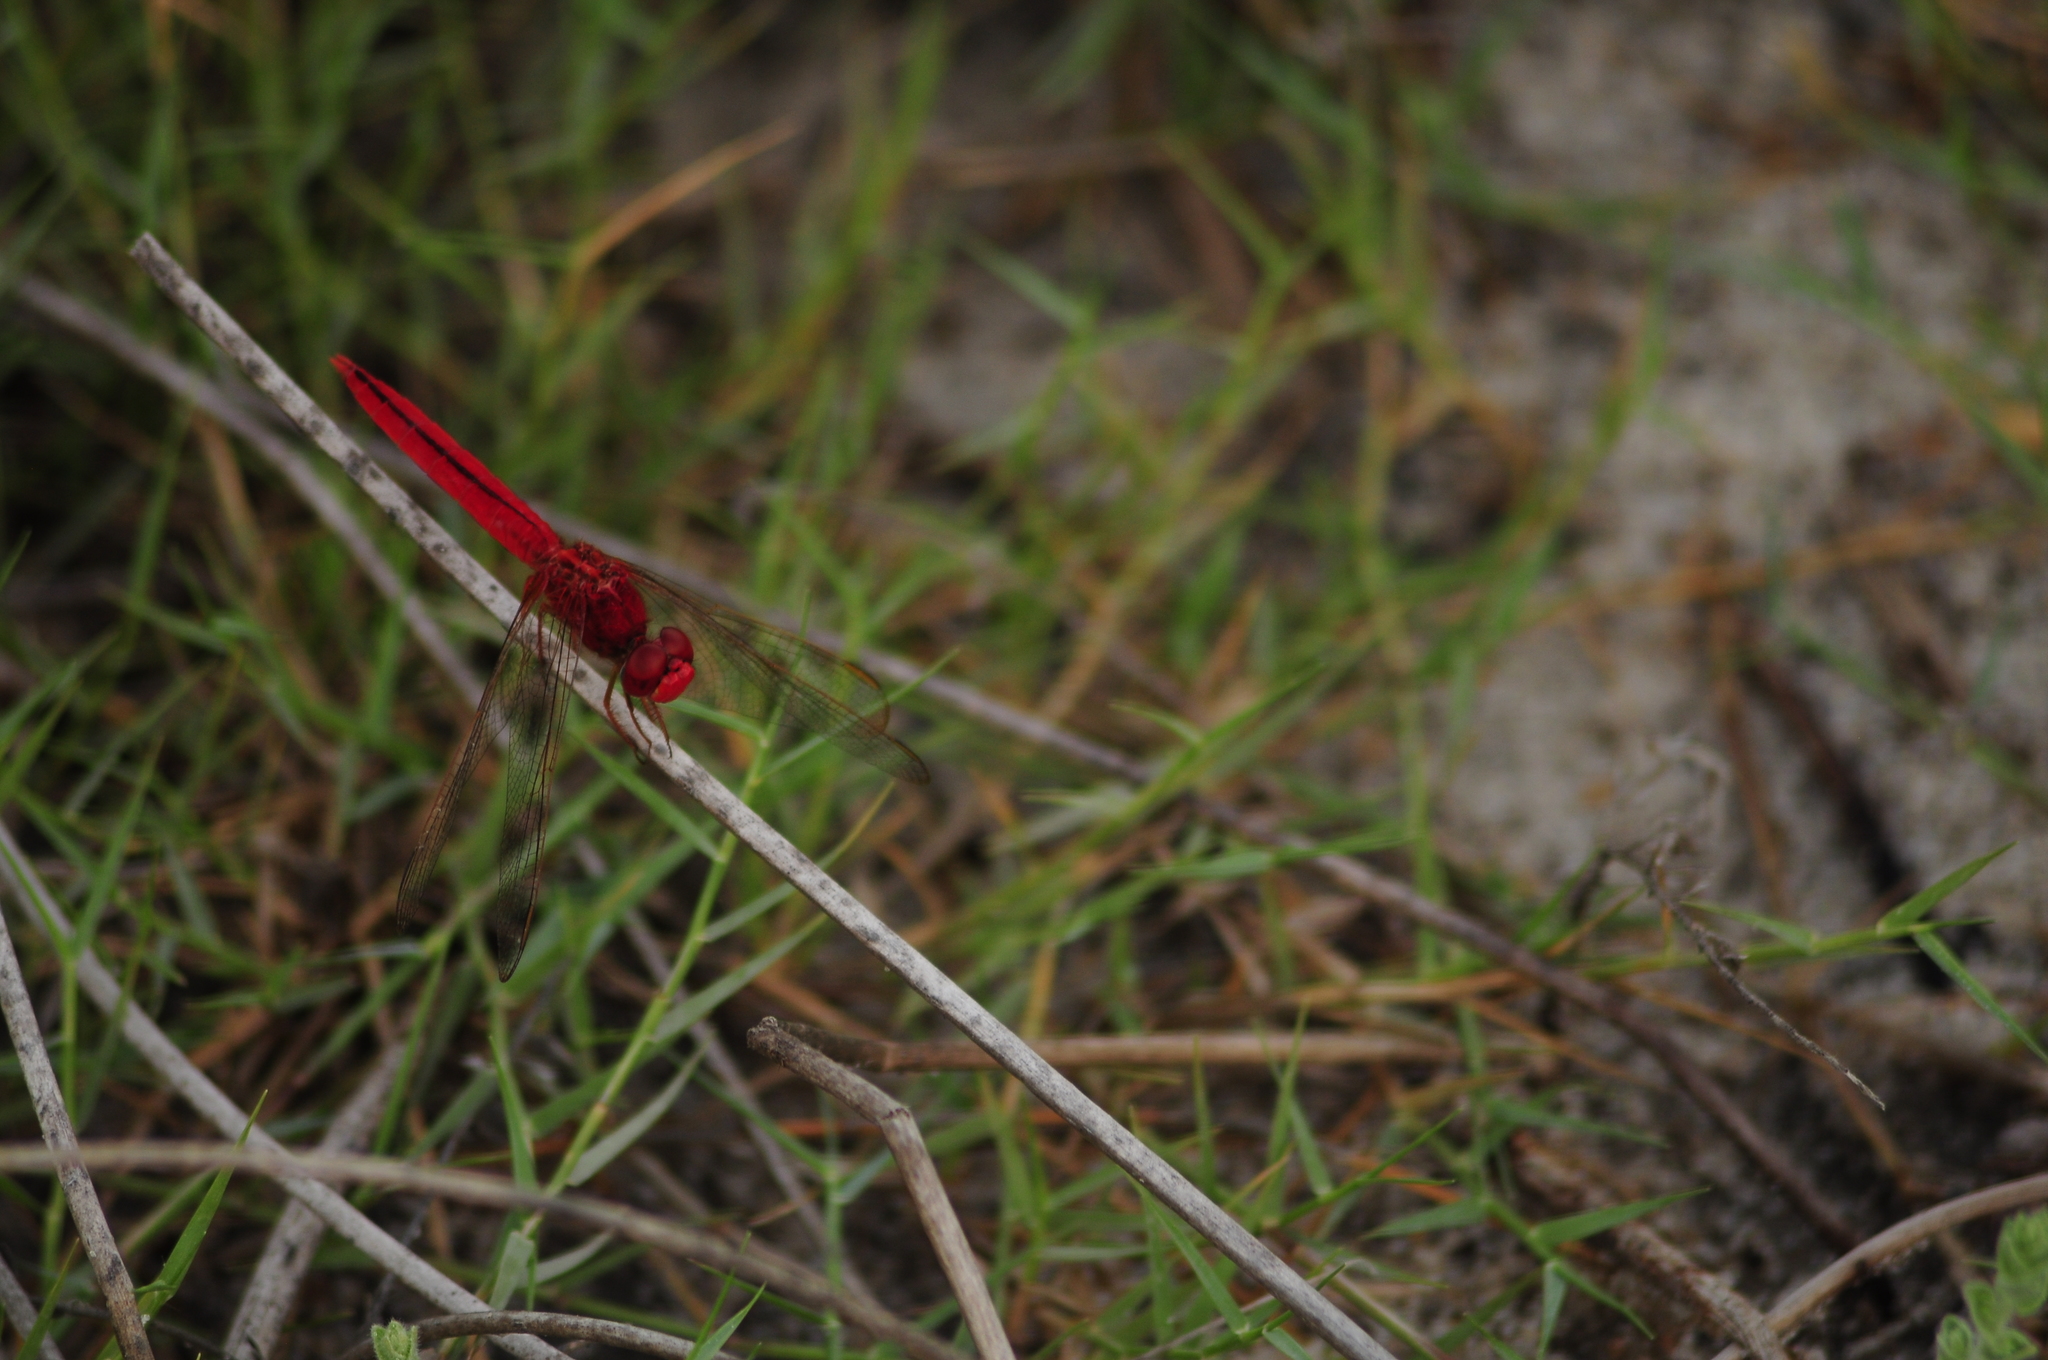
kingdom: Animalia
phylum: Arthropoda
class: Insecta
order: Odonata
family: Libellulidae
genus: Crocothemis
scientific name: Crocothemis servilia
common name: Scarlet skimmer
